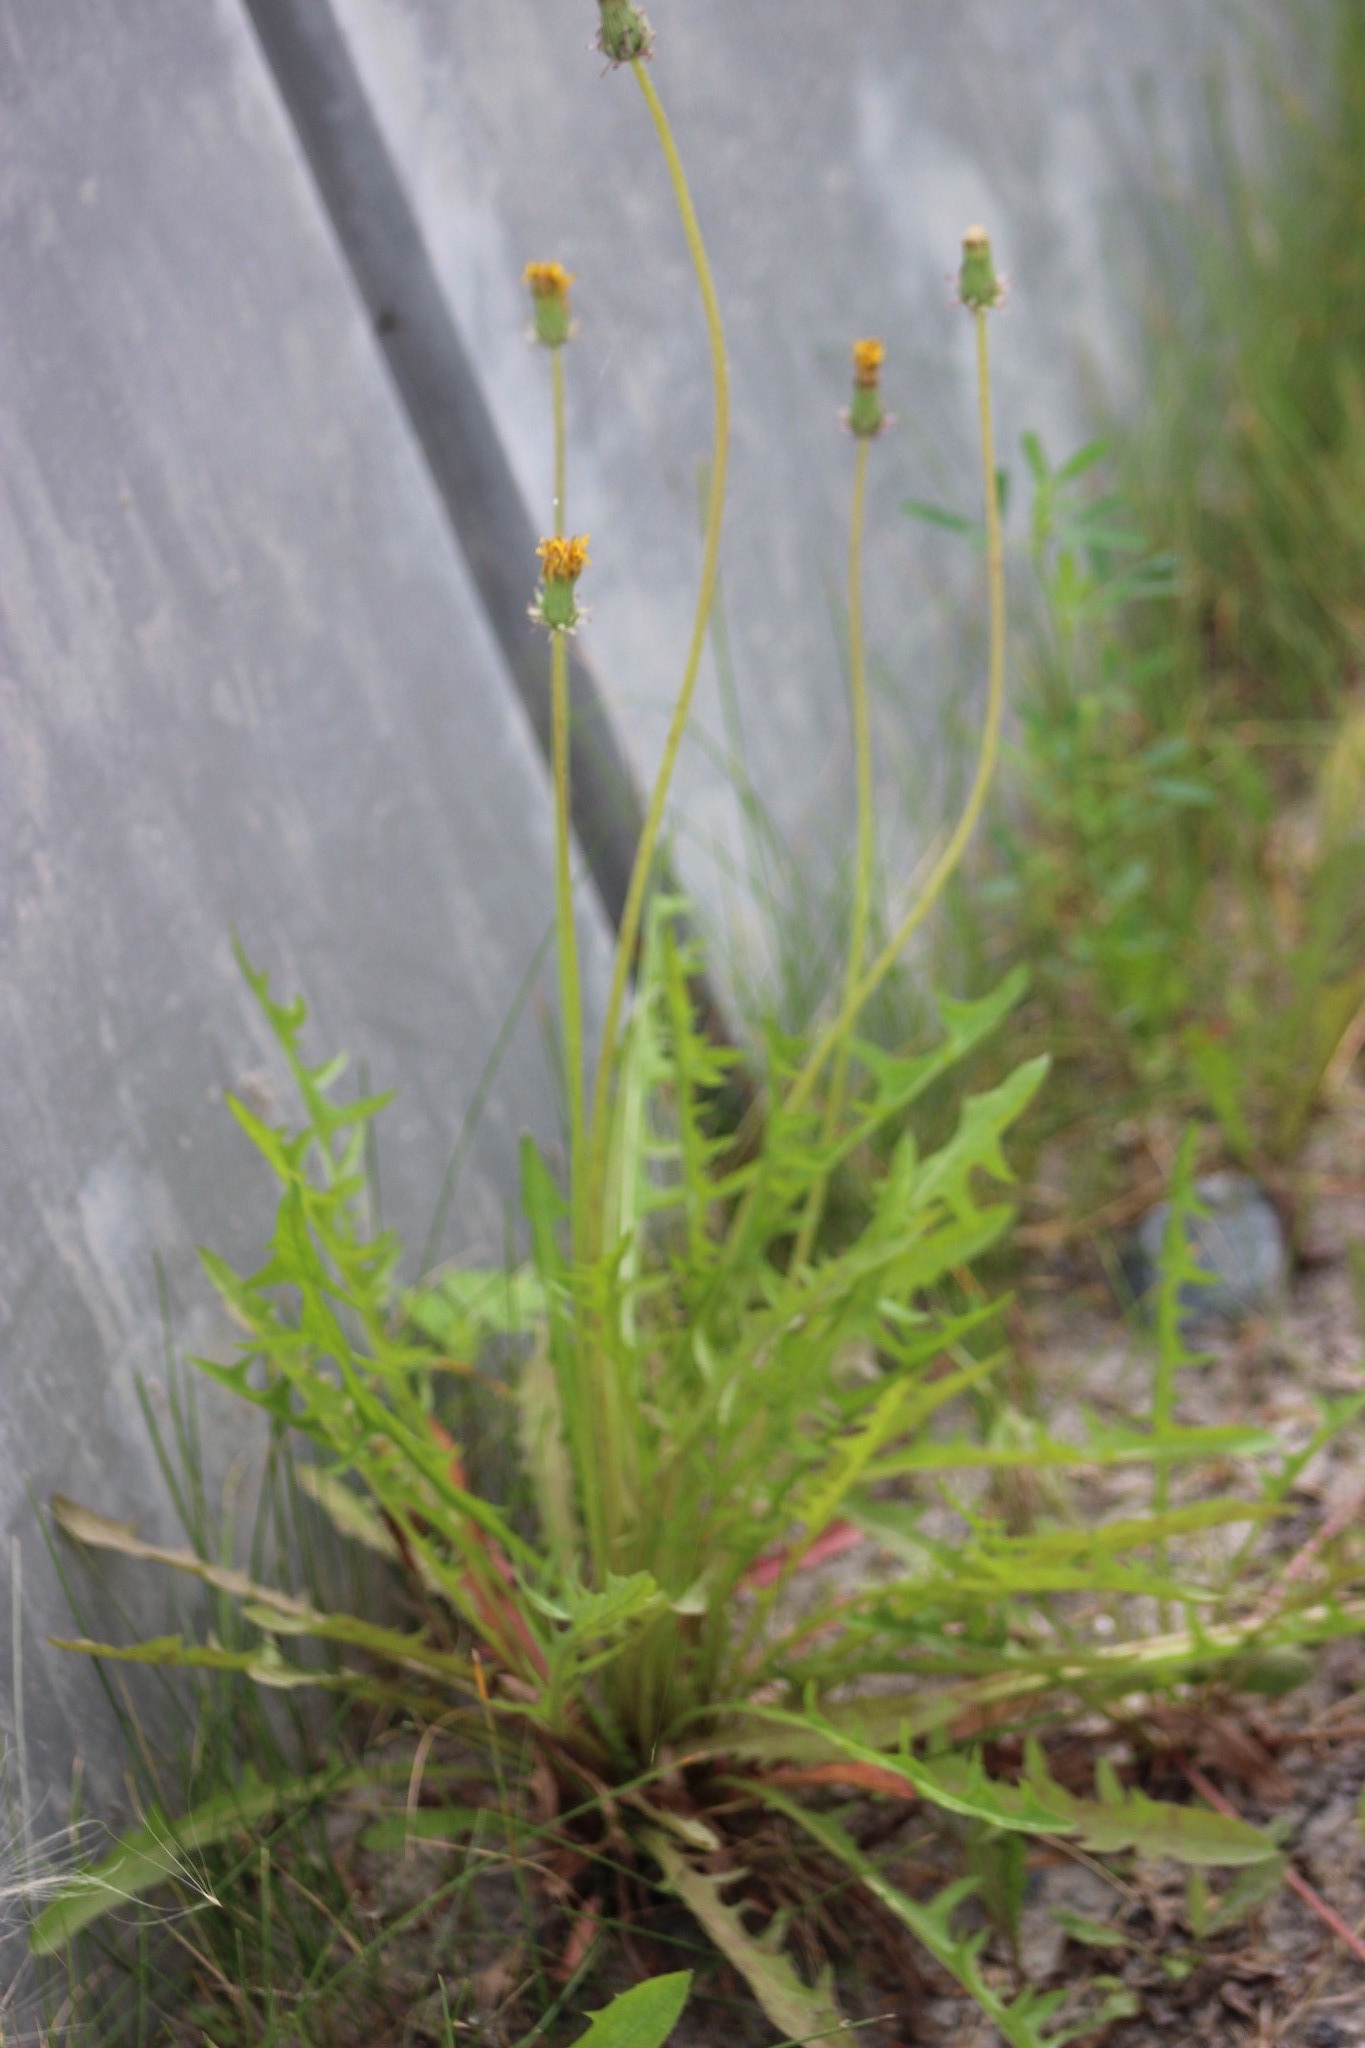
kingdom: Plantae
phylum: Tracheophyta
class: Magnoliopsida
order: Asterales
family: Asteraceae
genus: Taraxacum
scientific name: Taraxacum officinale
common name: Common dandelion
